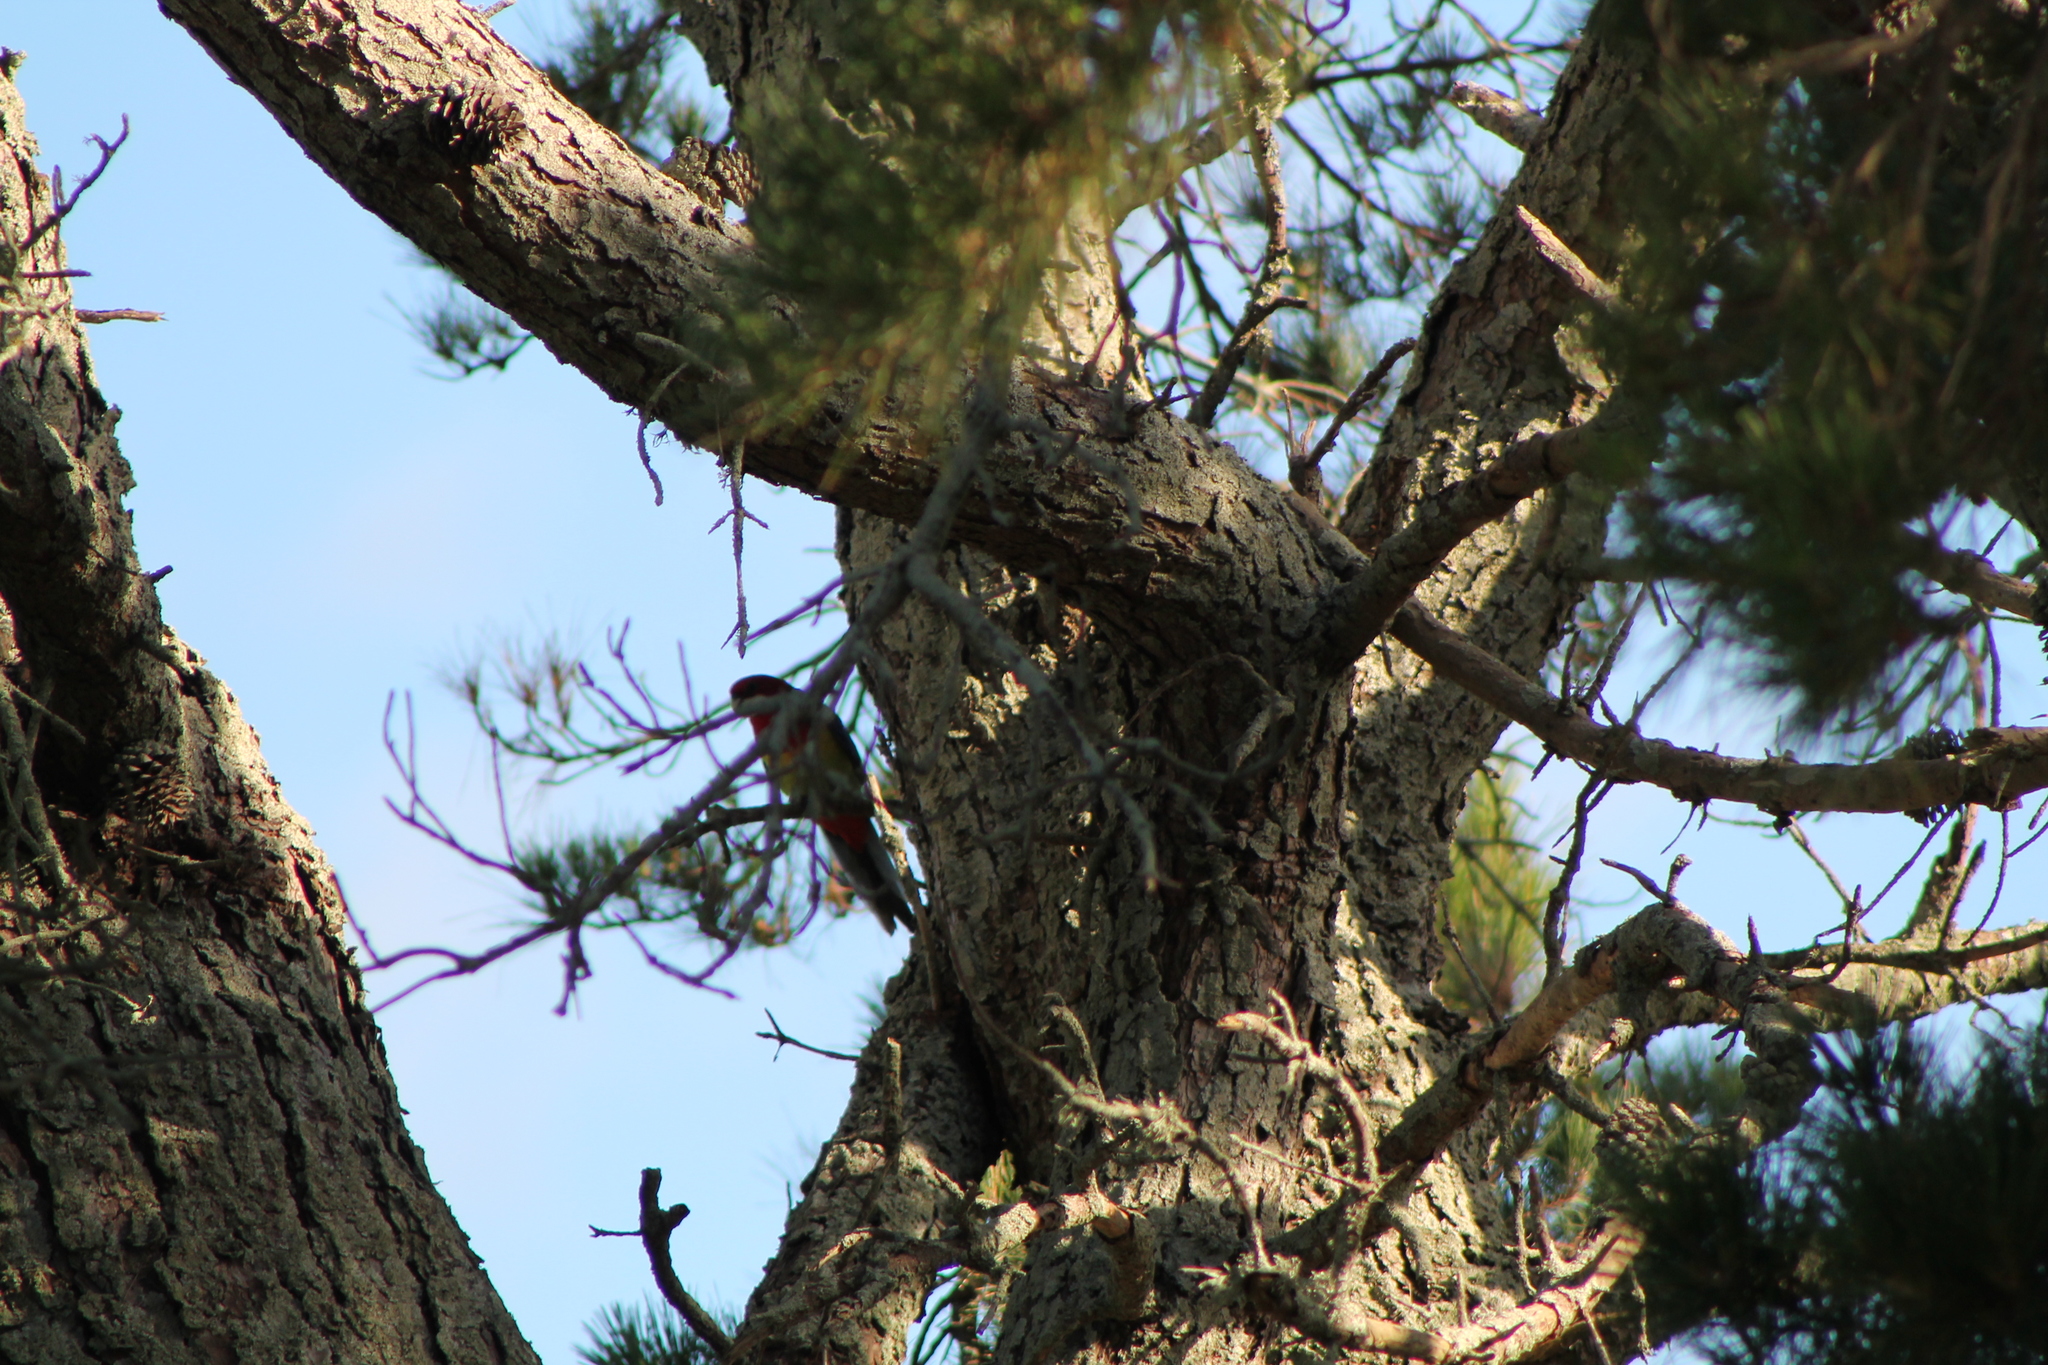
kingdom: Animalia
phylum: Chordata
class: Aves
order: Psittaciformes
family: Psittacidae
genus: Platycercus
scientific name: Platycercus eximius
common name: Eastern rosella
